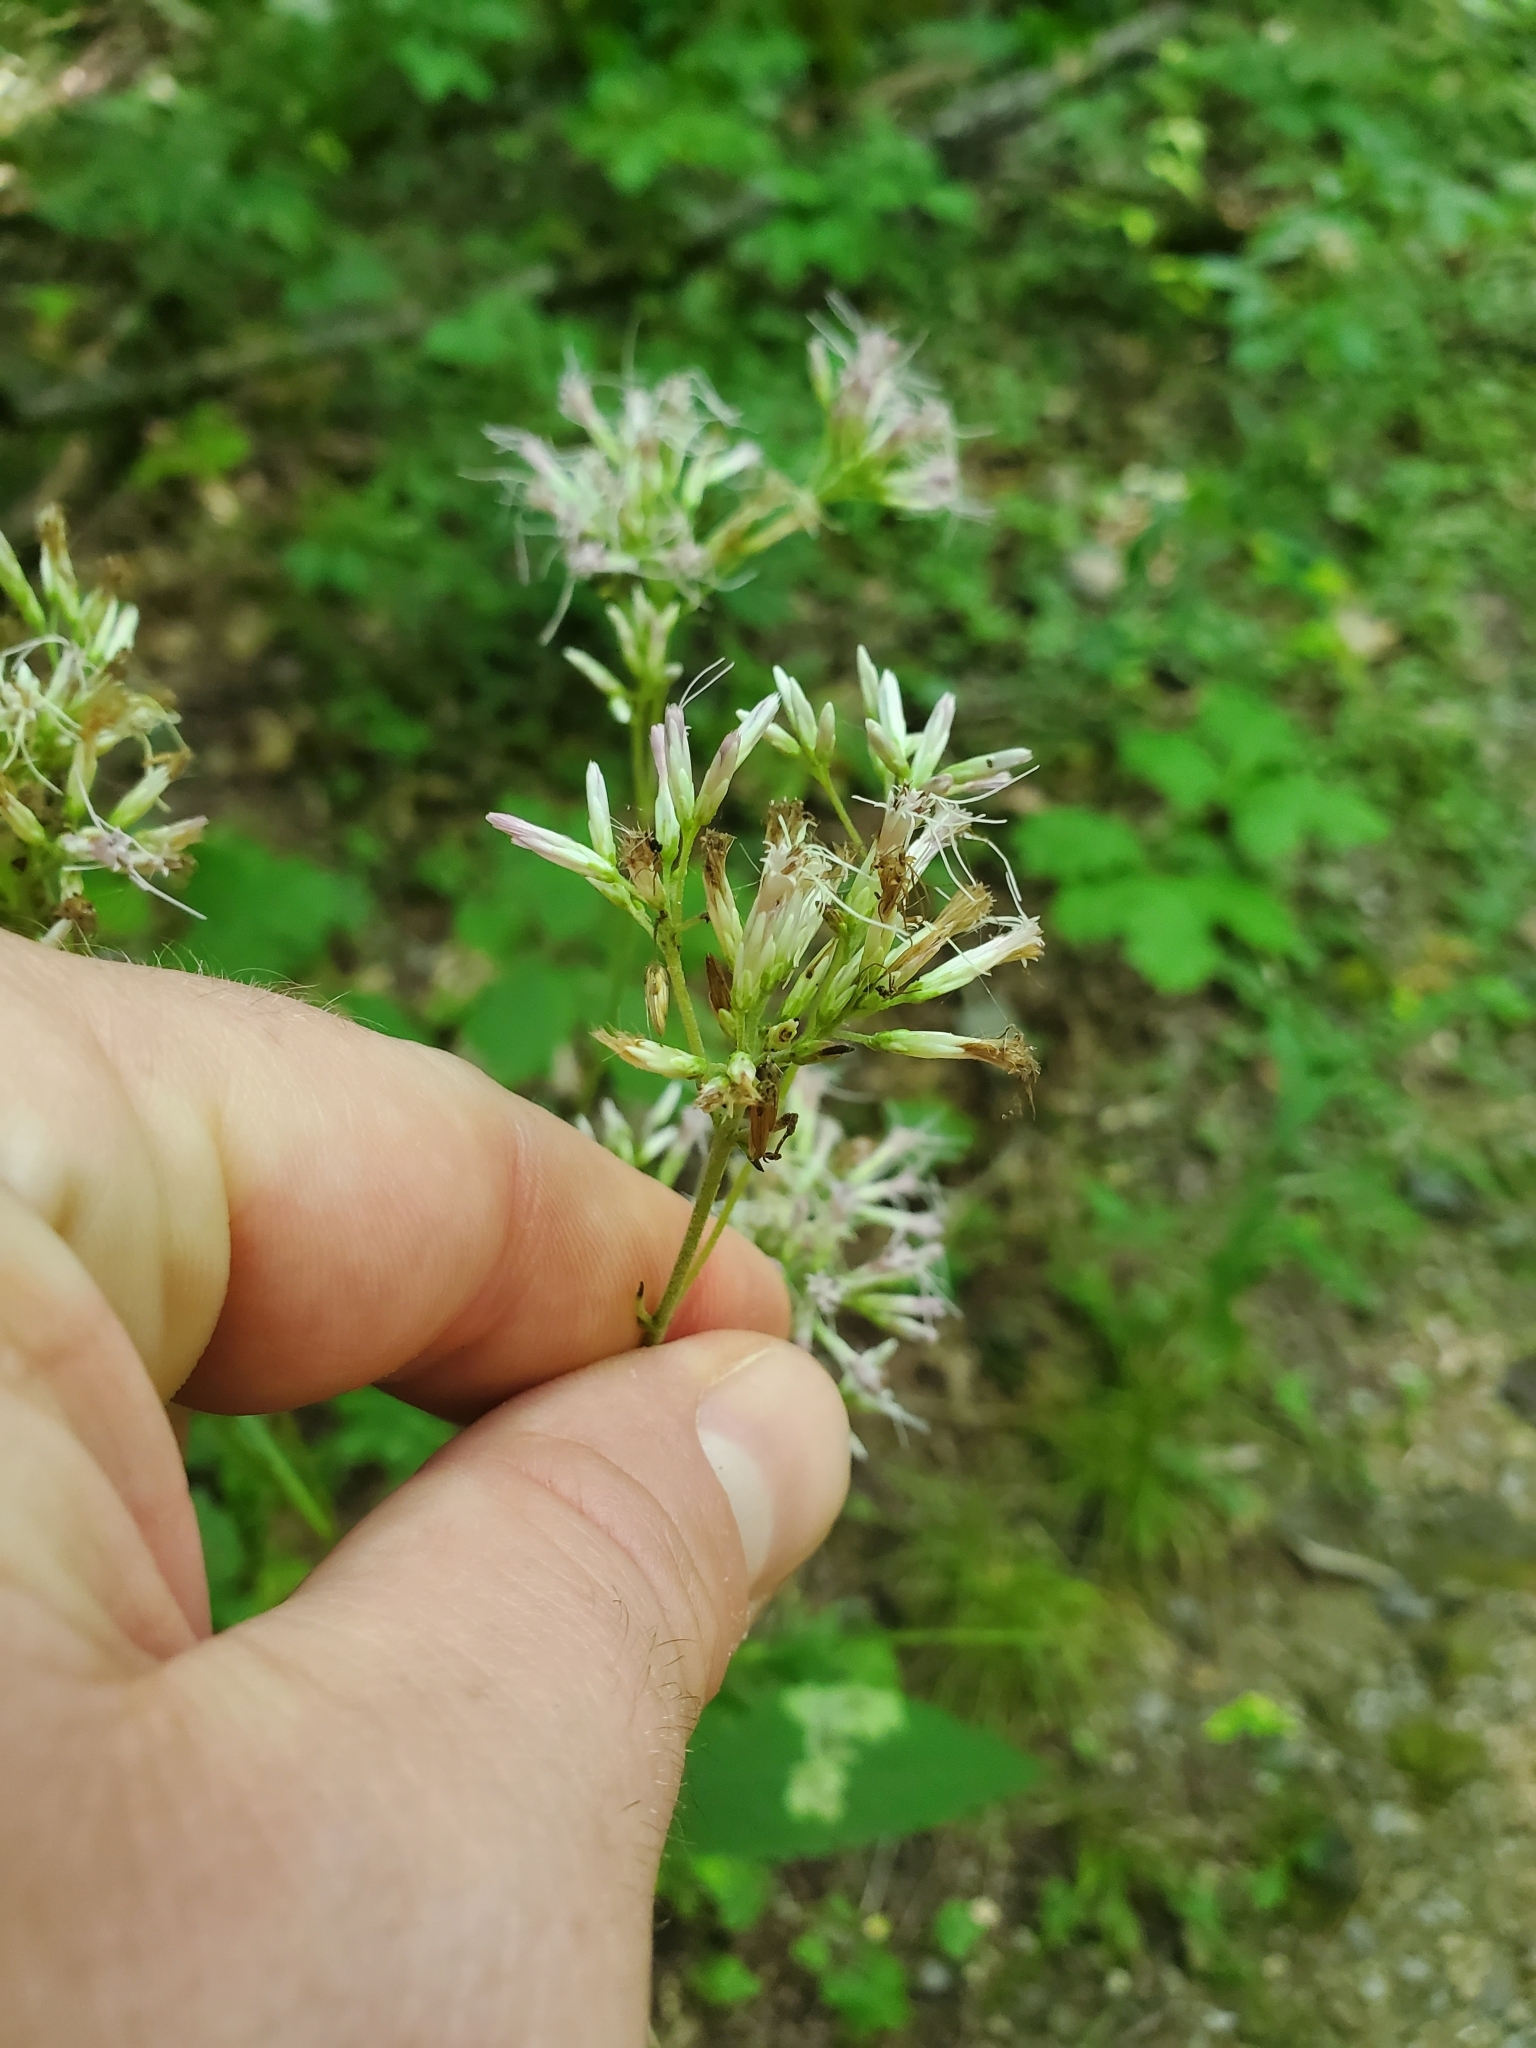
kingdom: Plantae
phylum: Tracheophyta
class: Magnoliopsida
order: Asterales
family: Asteraceae
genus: Eutrochium
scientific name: Eutrochium purpureum
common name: Gravelroot
